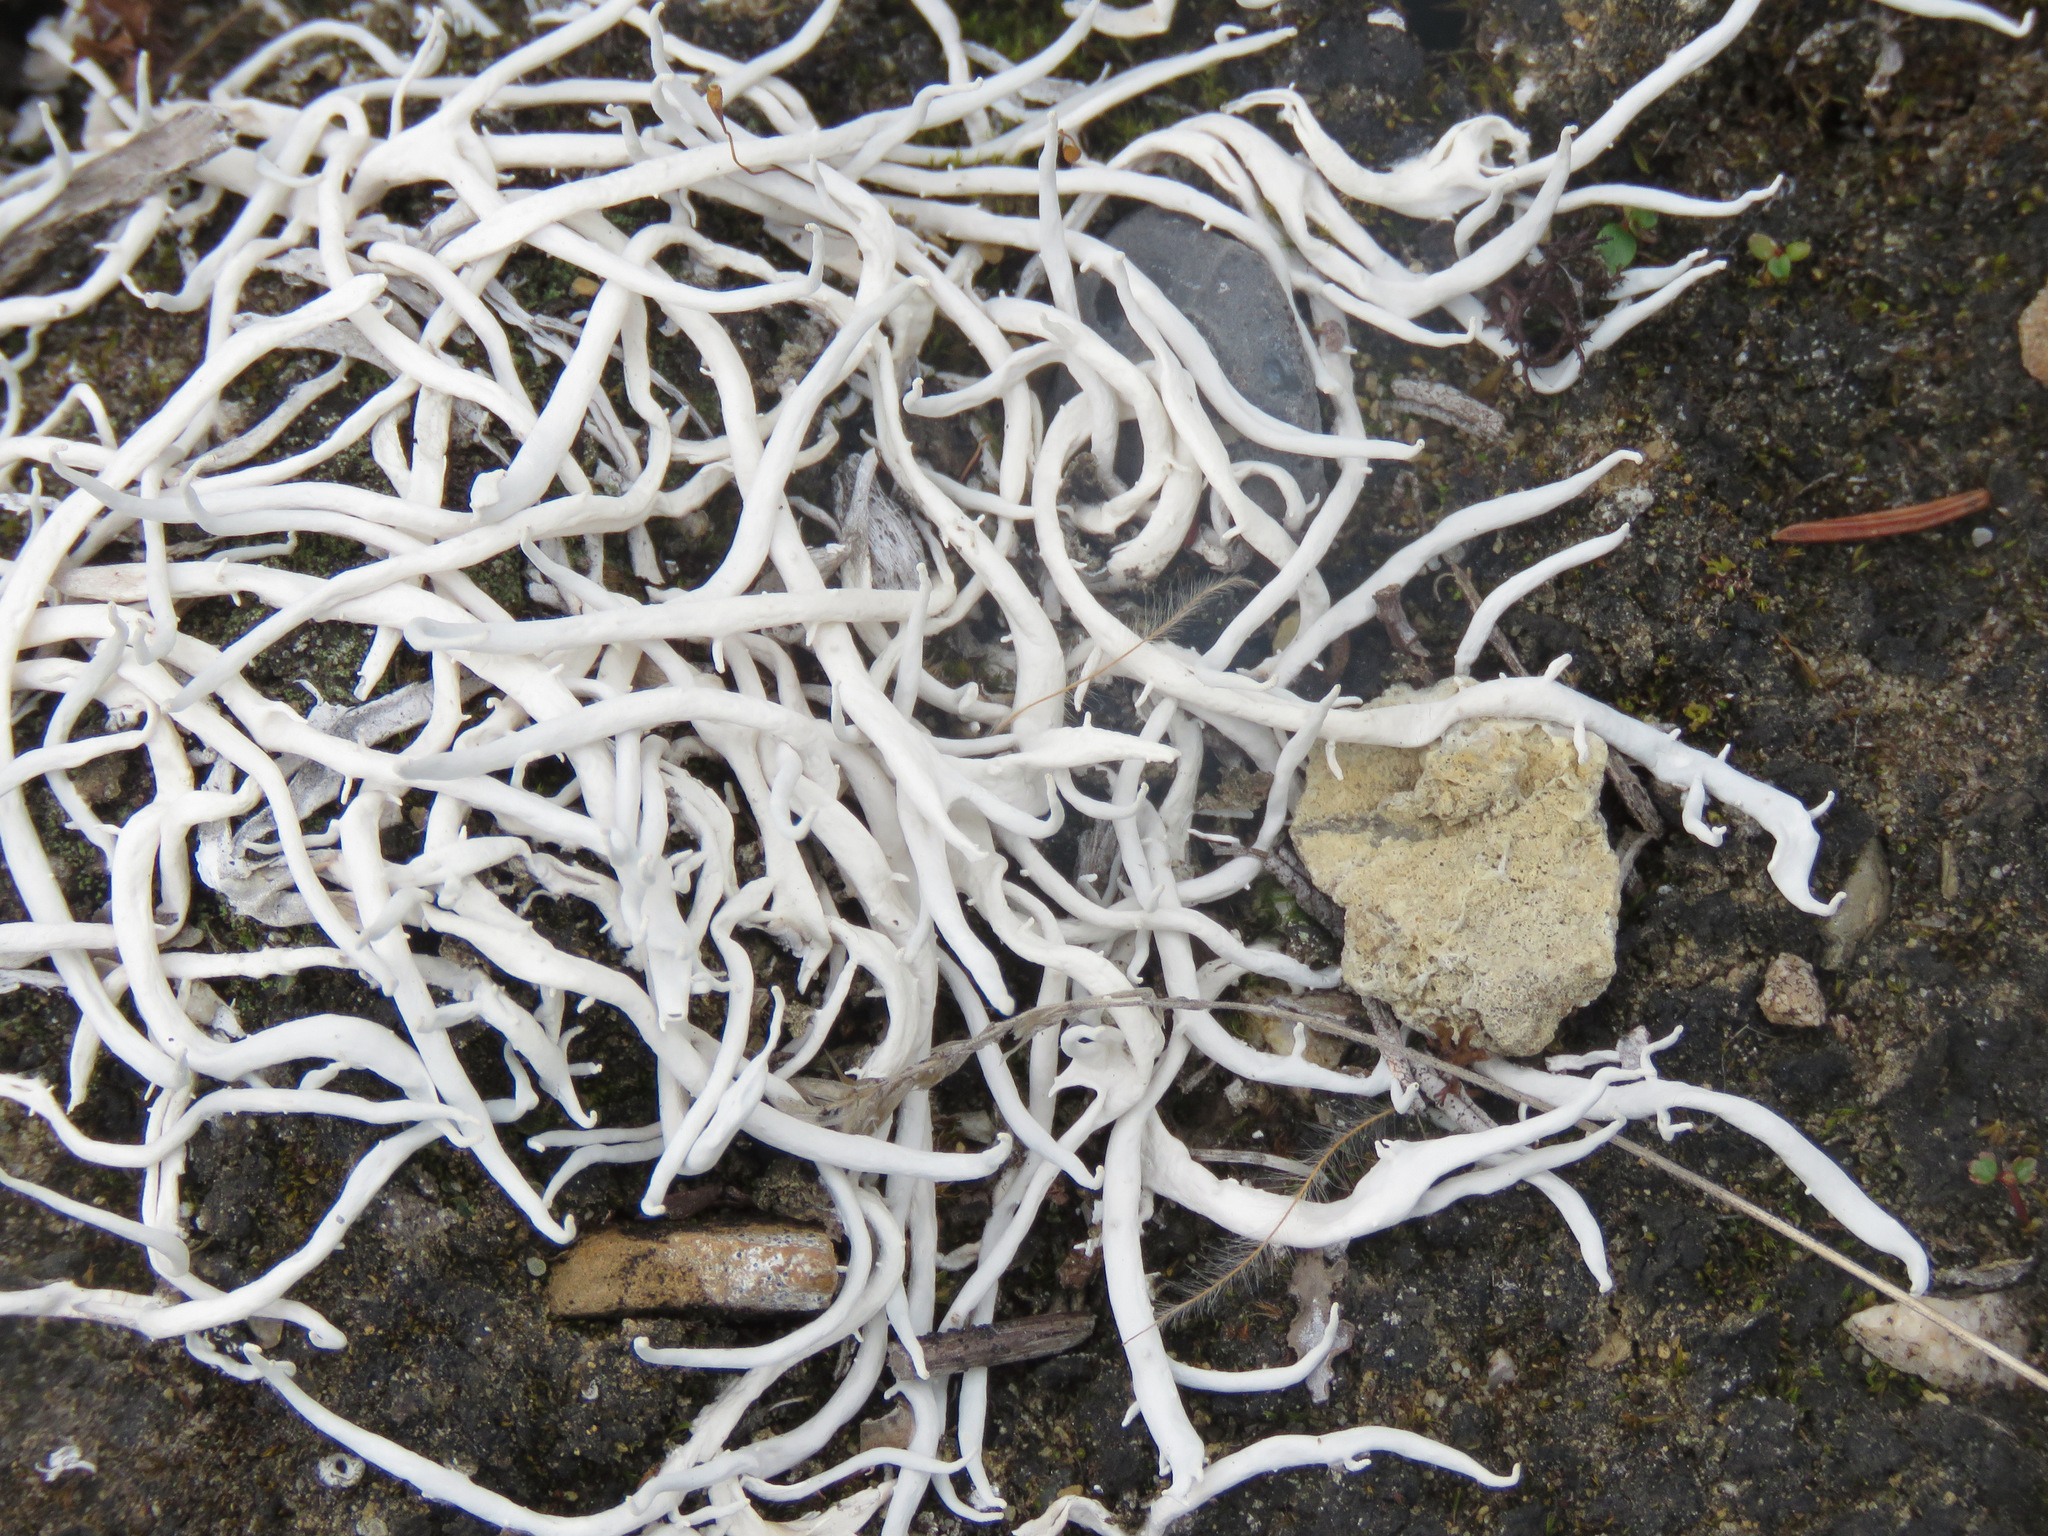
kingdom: Fungi
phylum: Ascomycota
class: Lecanoromycetes
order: Pertusariales
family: Icmadophilaceae
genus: Thamnolia
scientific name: Thamnolia vermicularis
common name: Whiteworm lichen
